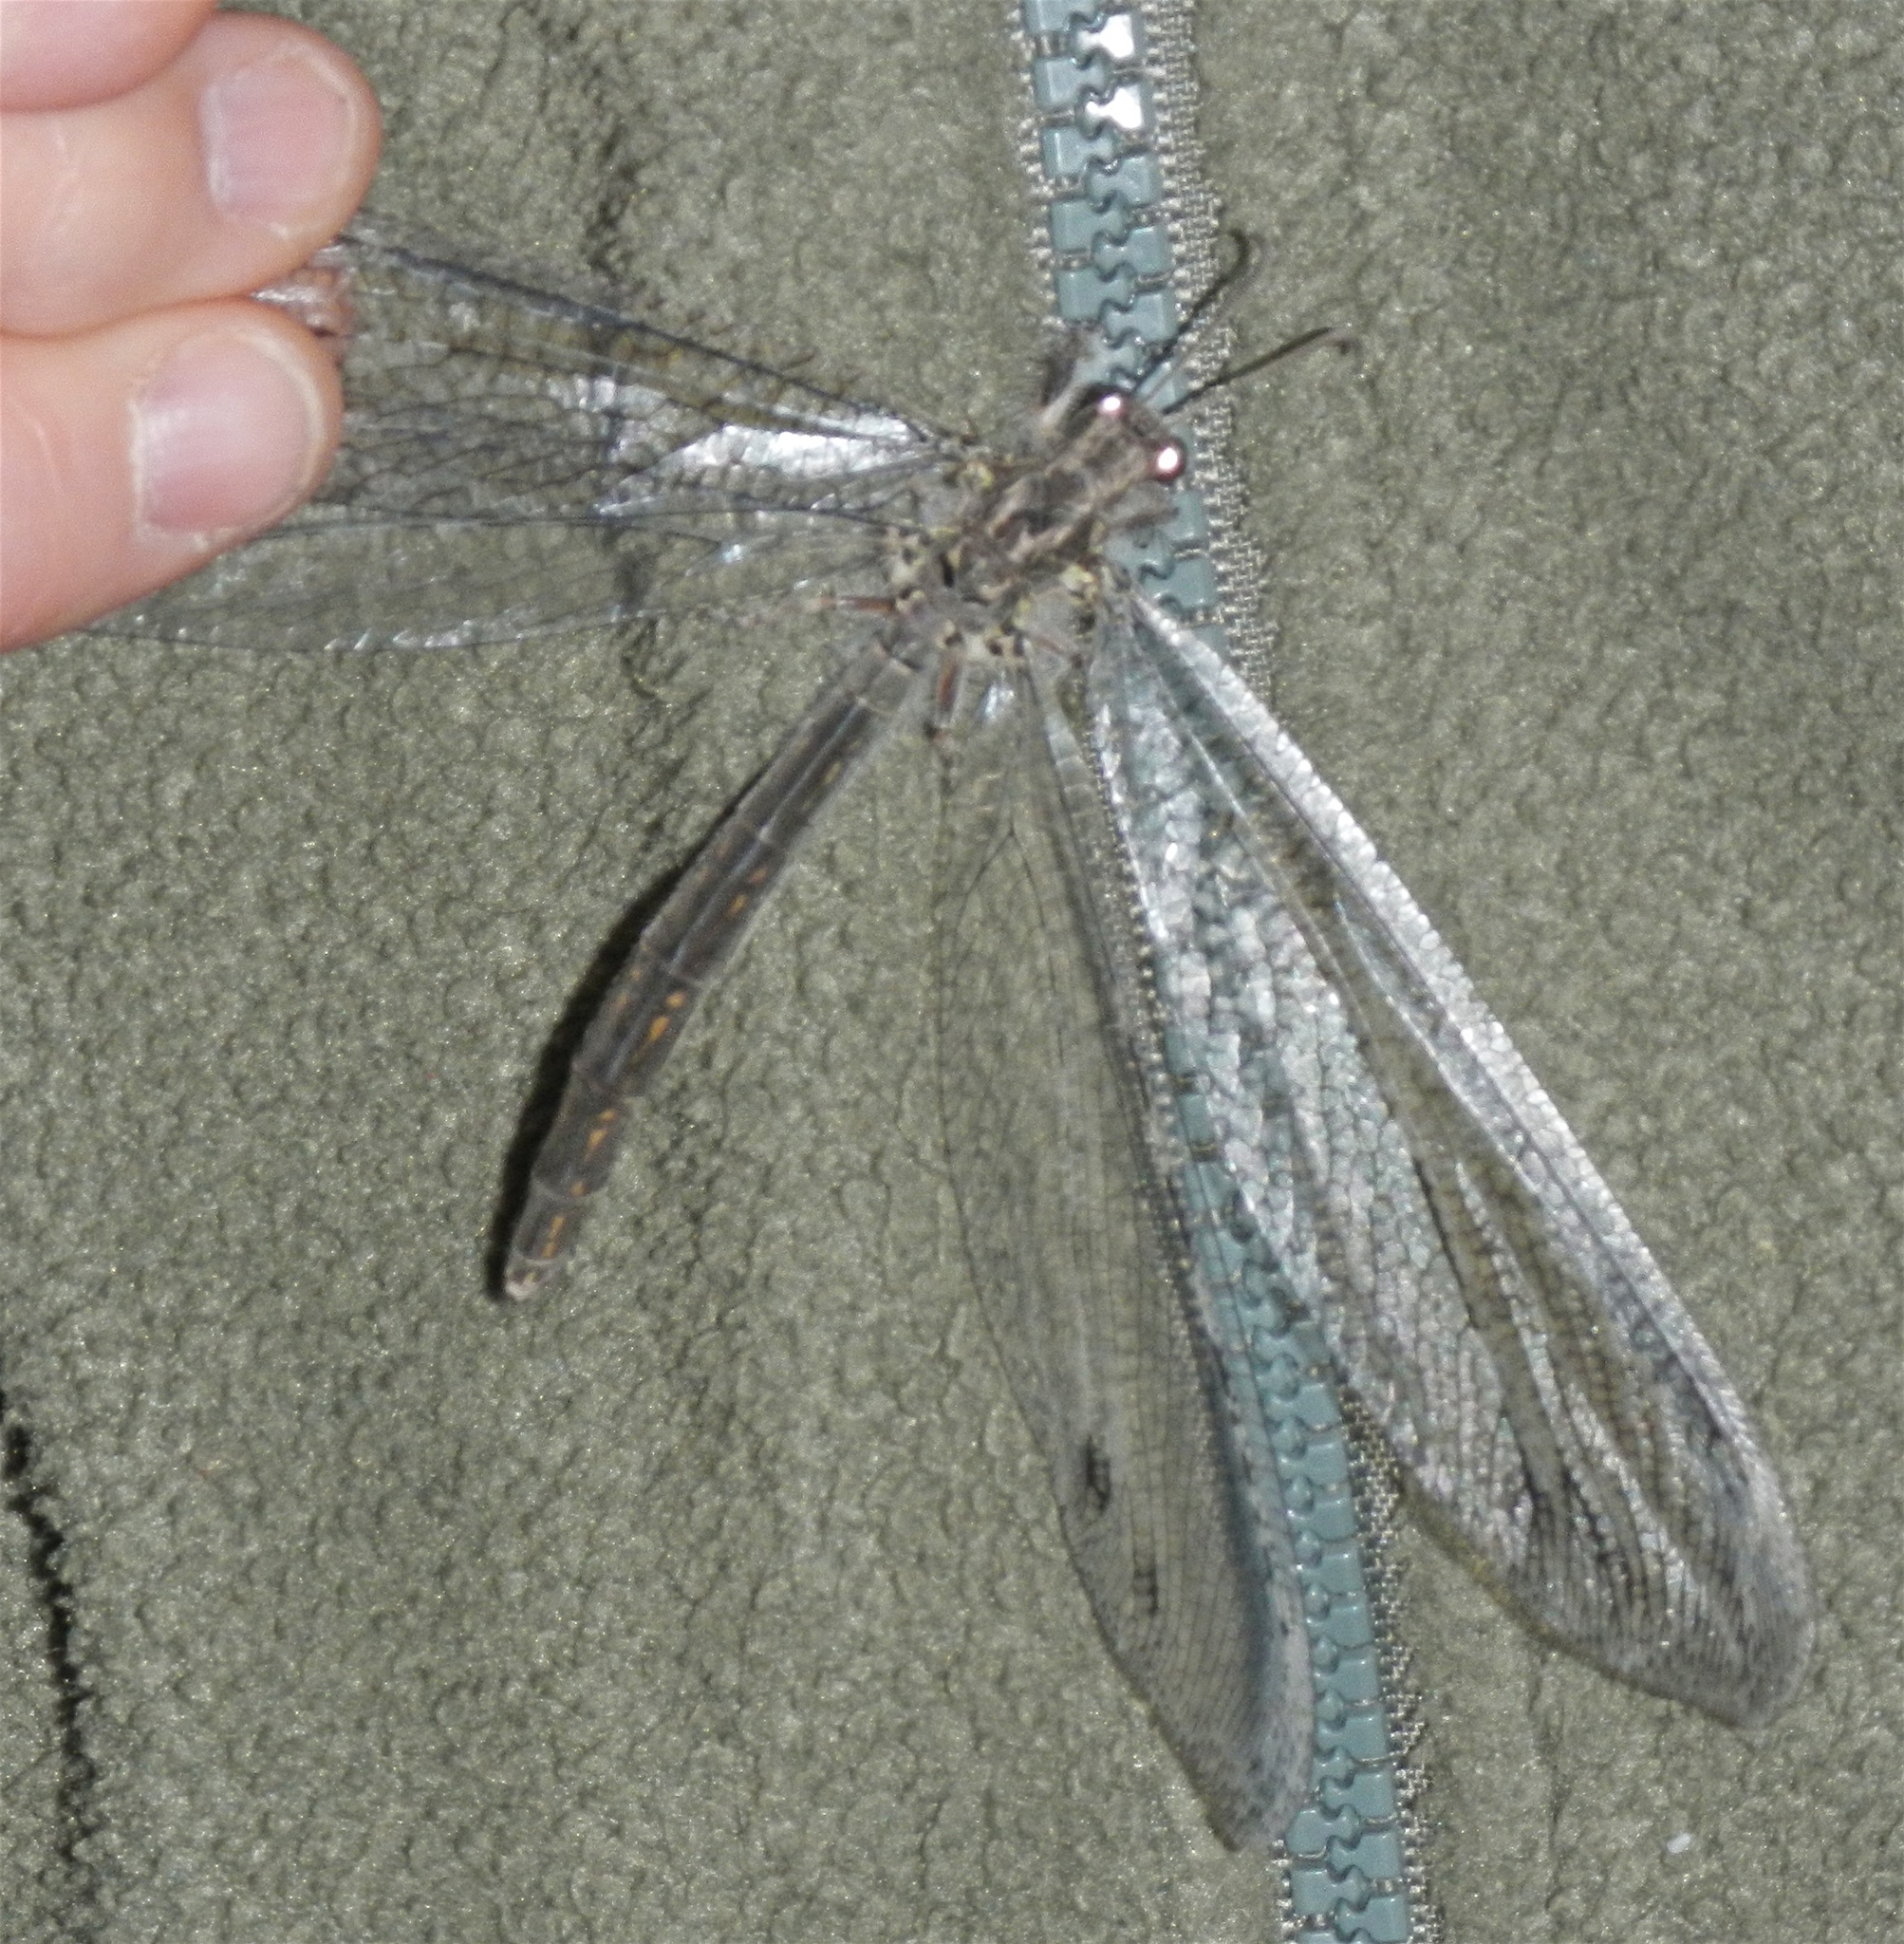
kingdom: Animalia
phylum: Arthropoda
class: Insecta
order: Neuroptera
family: Myrmeleontidae
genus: Vella
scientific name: Vella fallax
